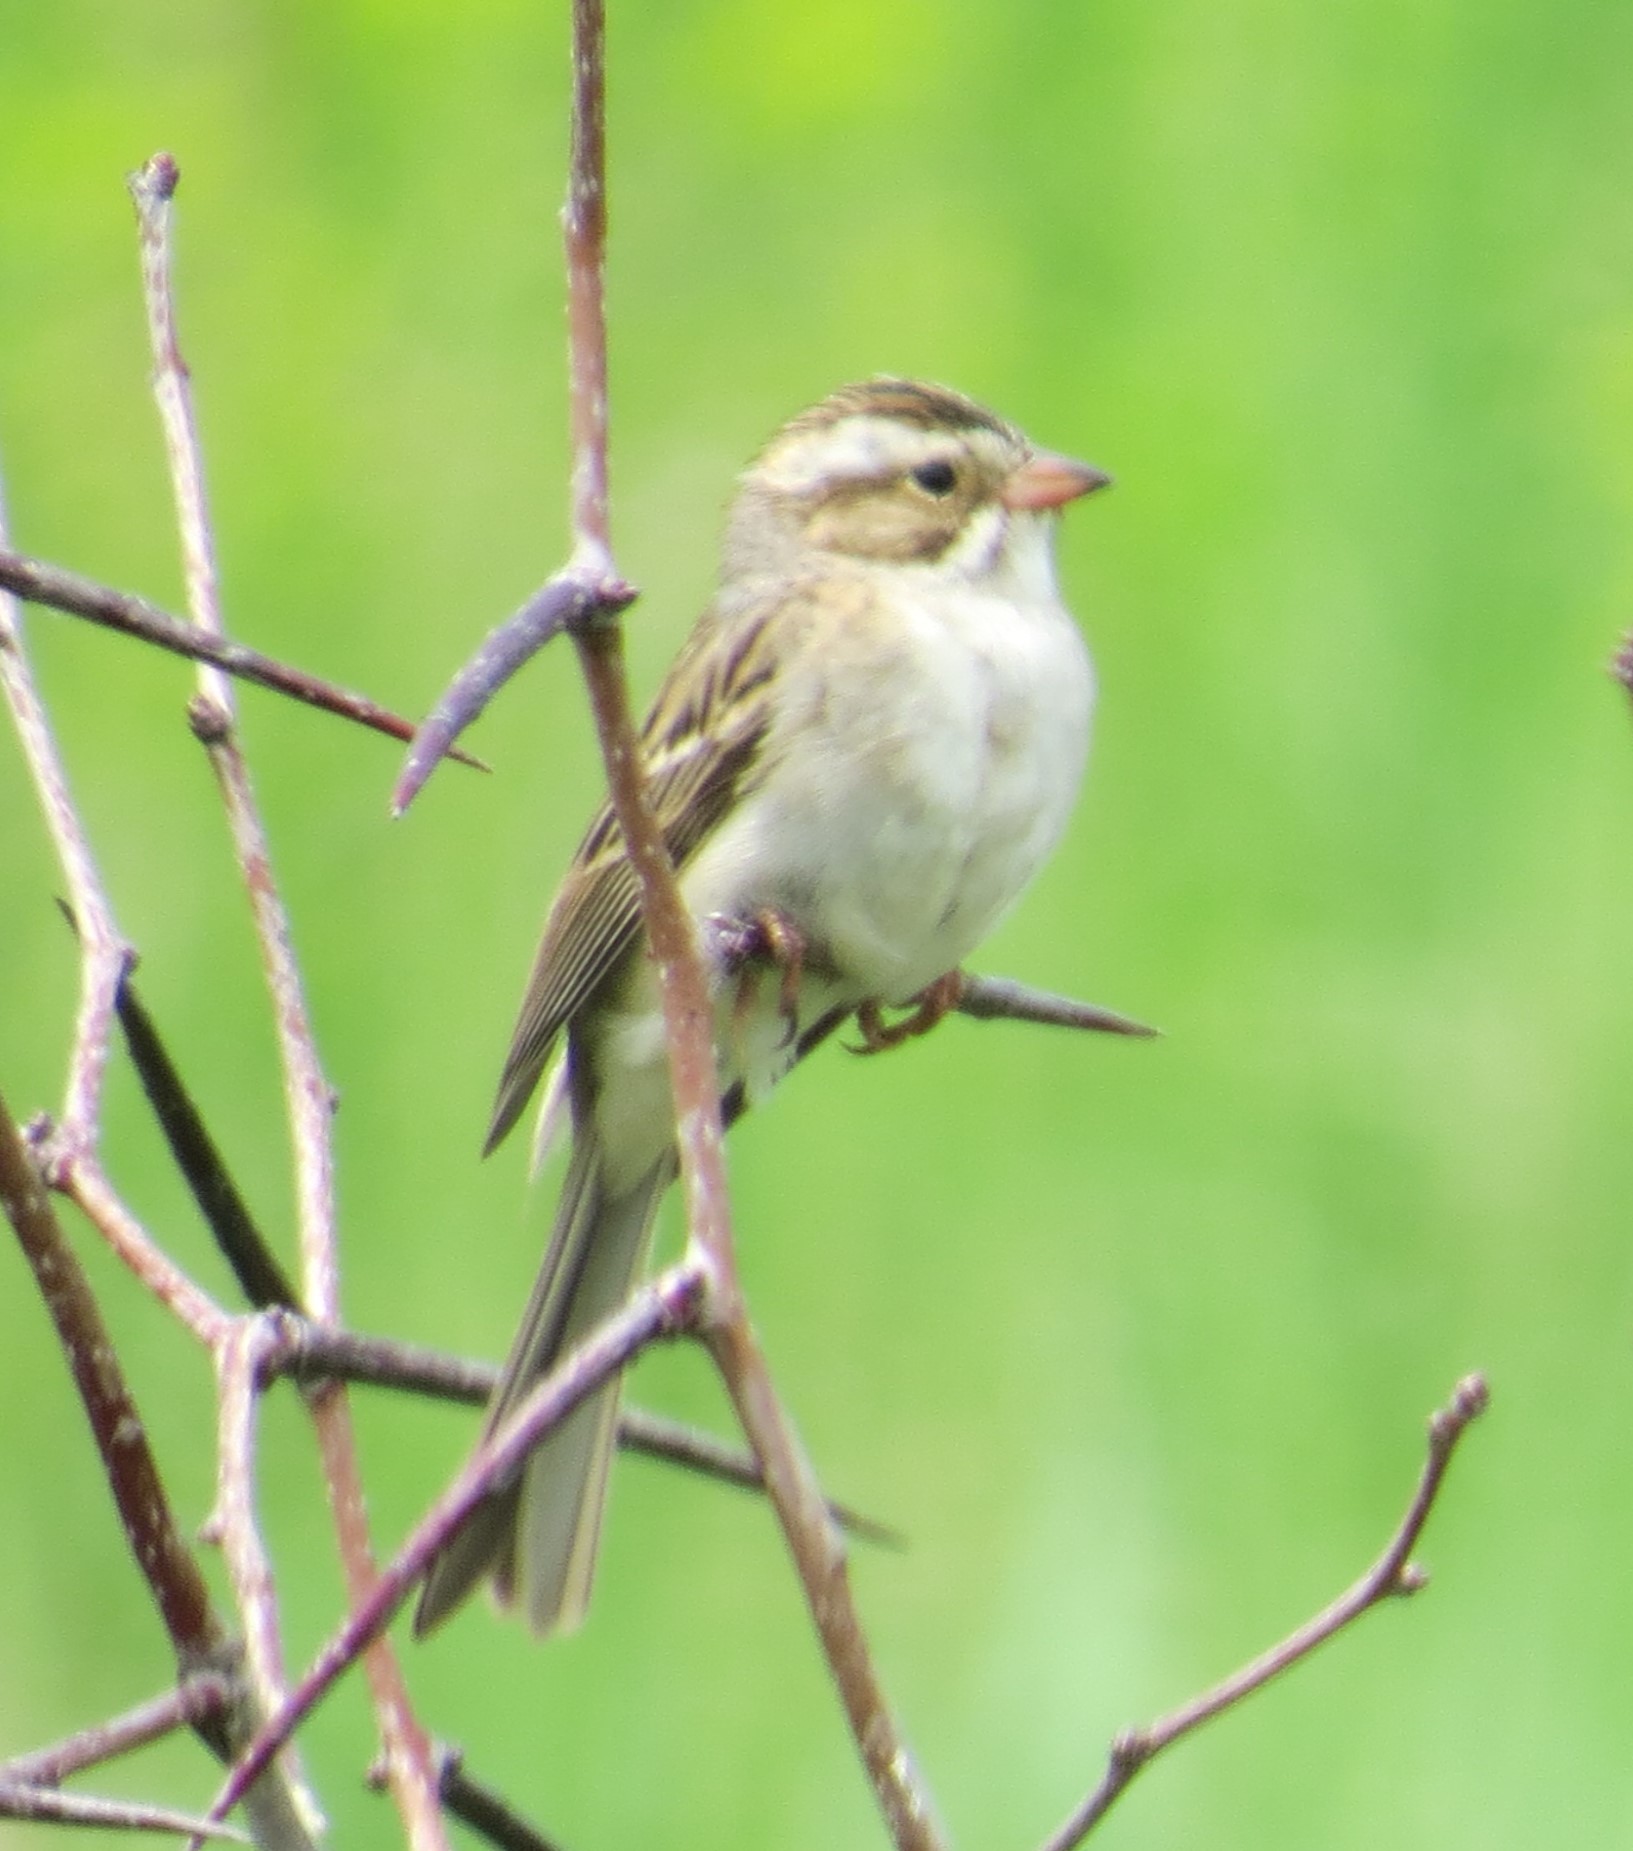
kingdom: Animalia
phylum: Chordata
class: Aves
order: Passeriformes
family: Passerellidae
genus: Spizella
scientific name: Spizella pallida
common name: Clay-colored sparrow
